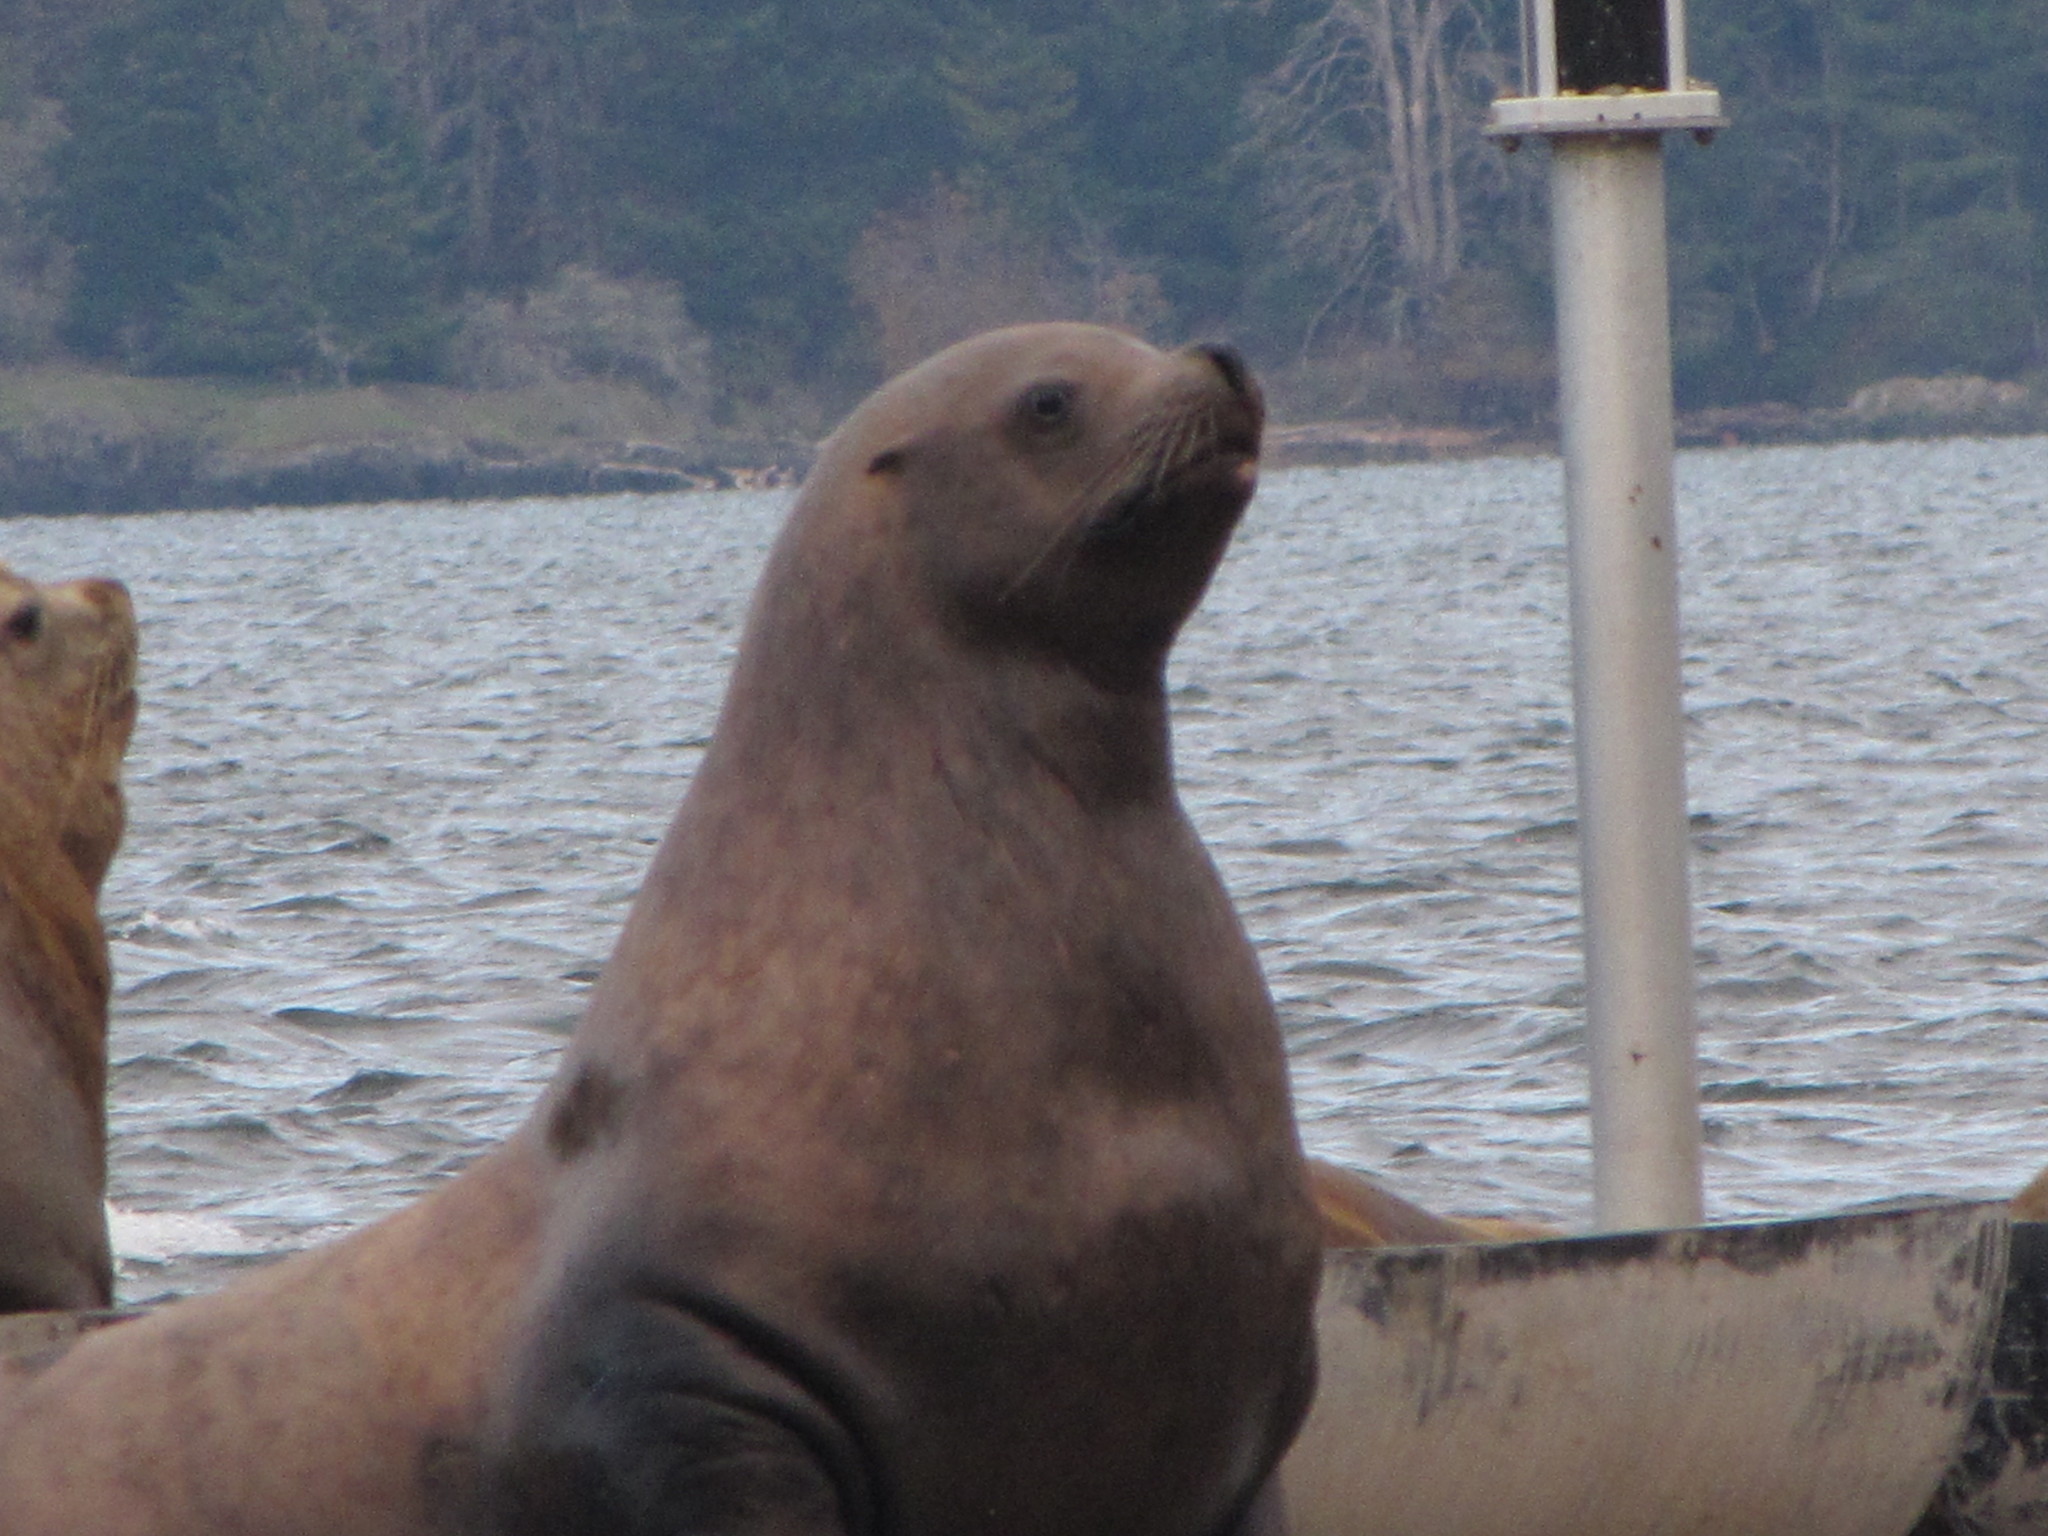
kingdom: Animalia
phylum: Chordata
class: Mammalia
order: Carnivora
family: Otariidae
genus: Eumetopias
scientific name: Eumetopias jubatus
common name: Steller sea lion
